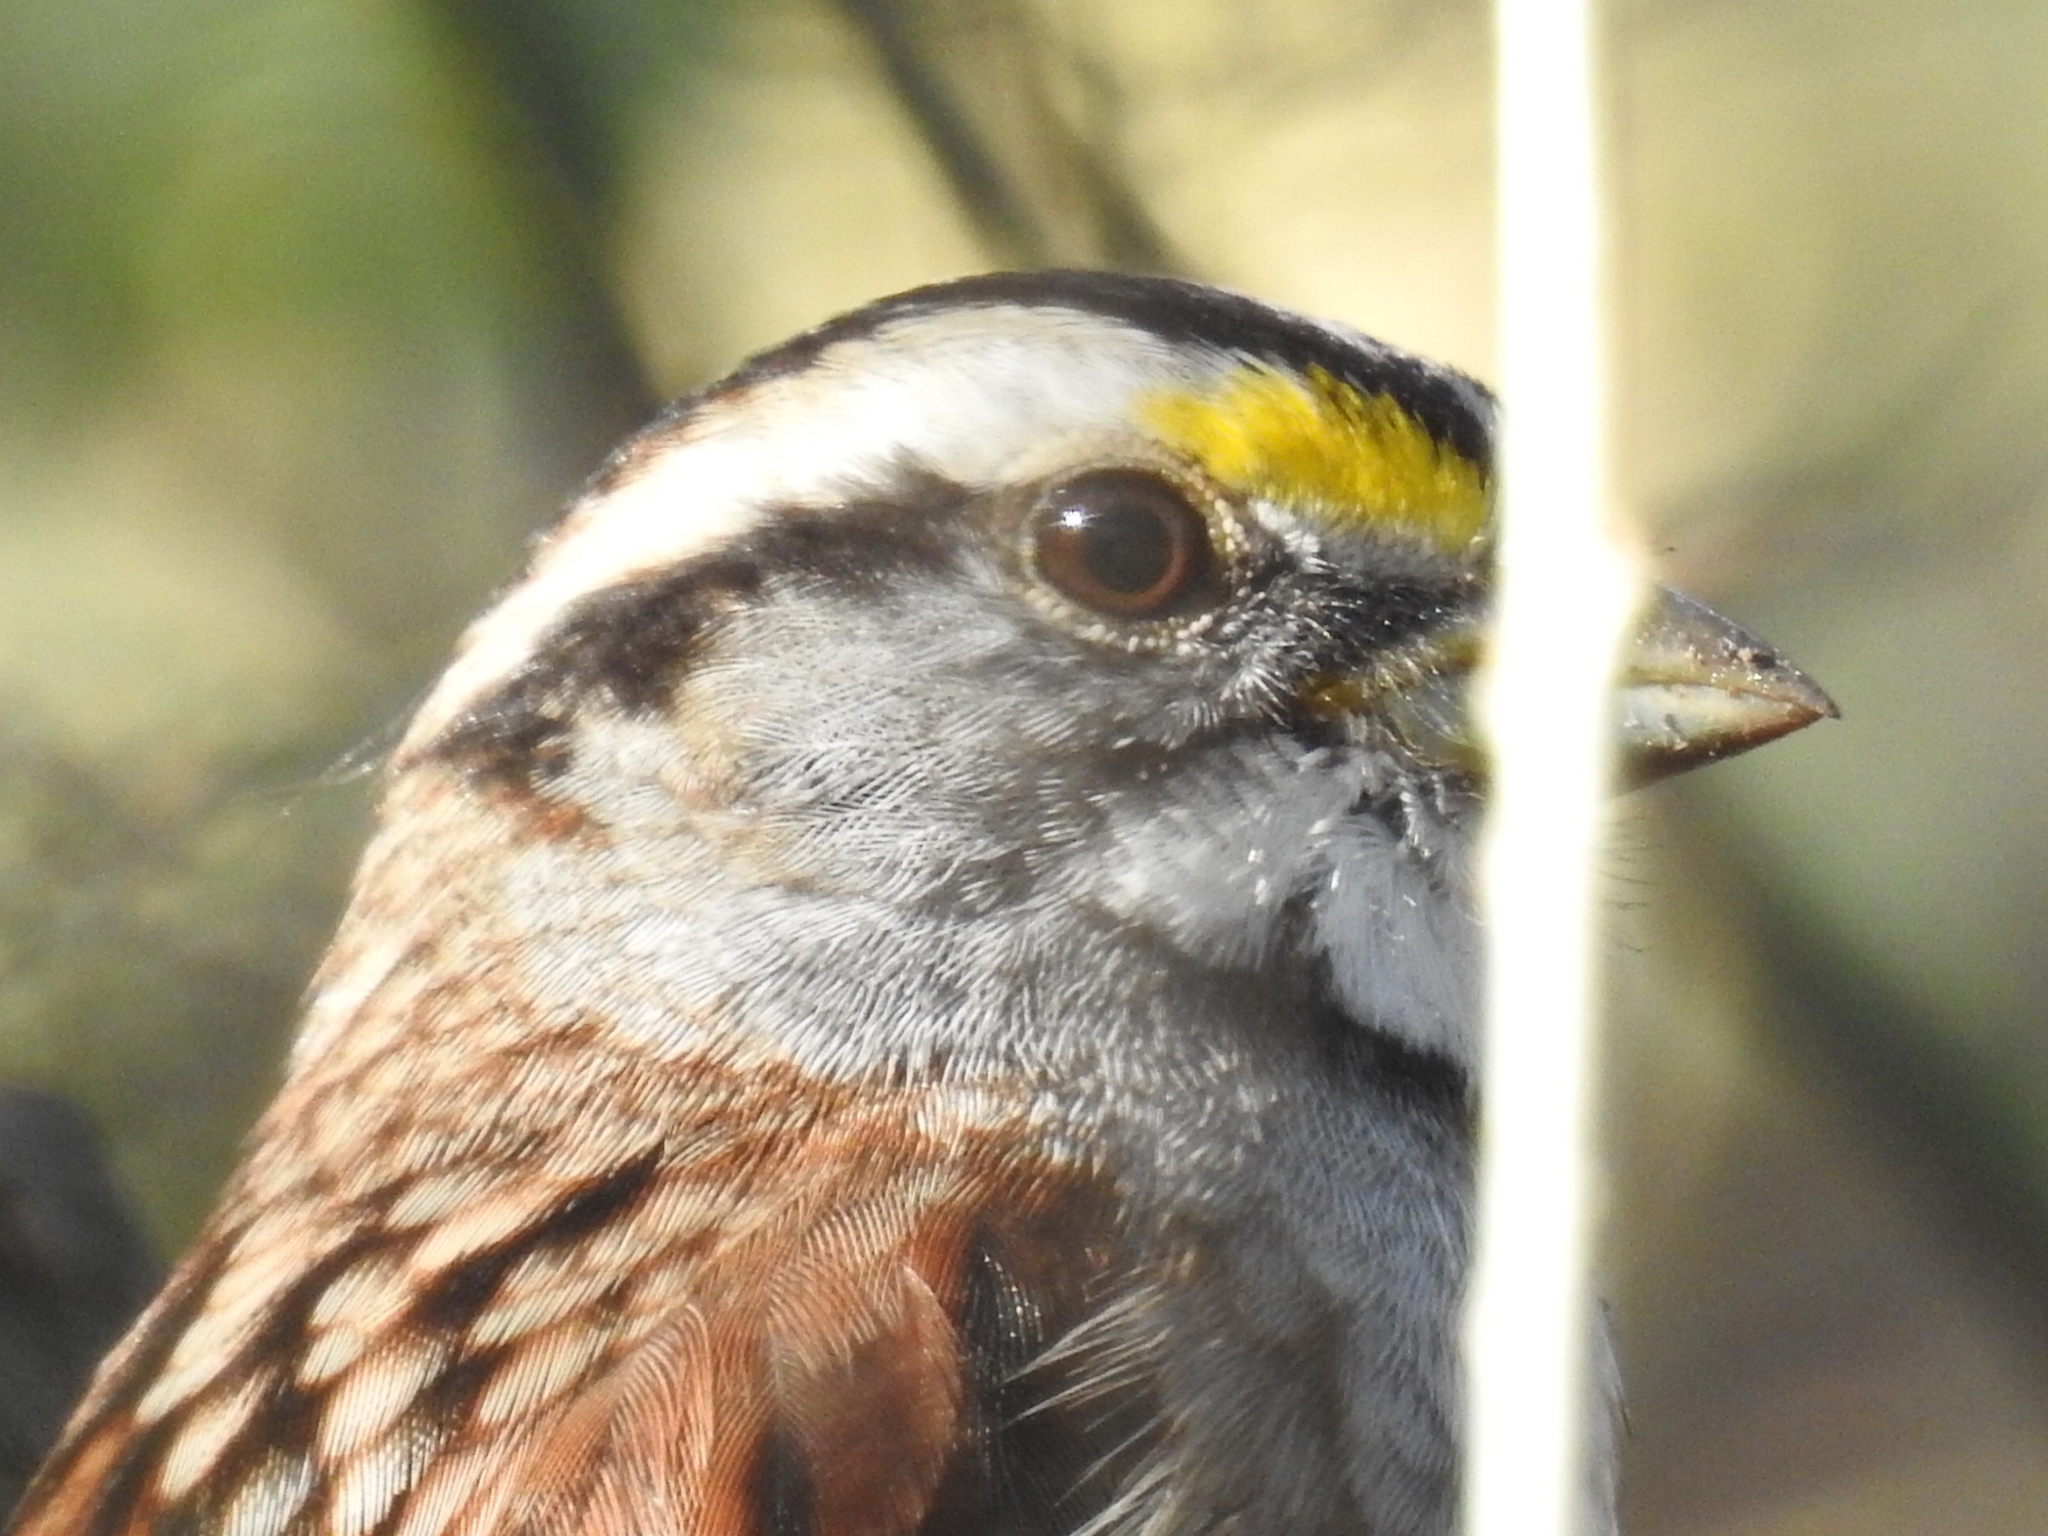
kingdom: Animalia
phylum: Chordata
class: Aves
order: Passeriformes
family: Passerellidae
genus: Zonotrichia
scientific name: Zonotrichia albicollis
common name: White-throated sparrow
